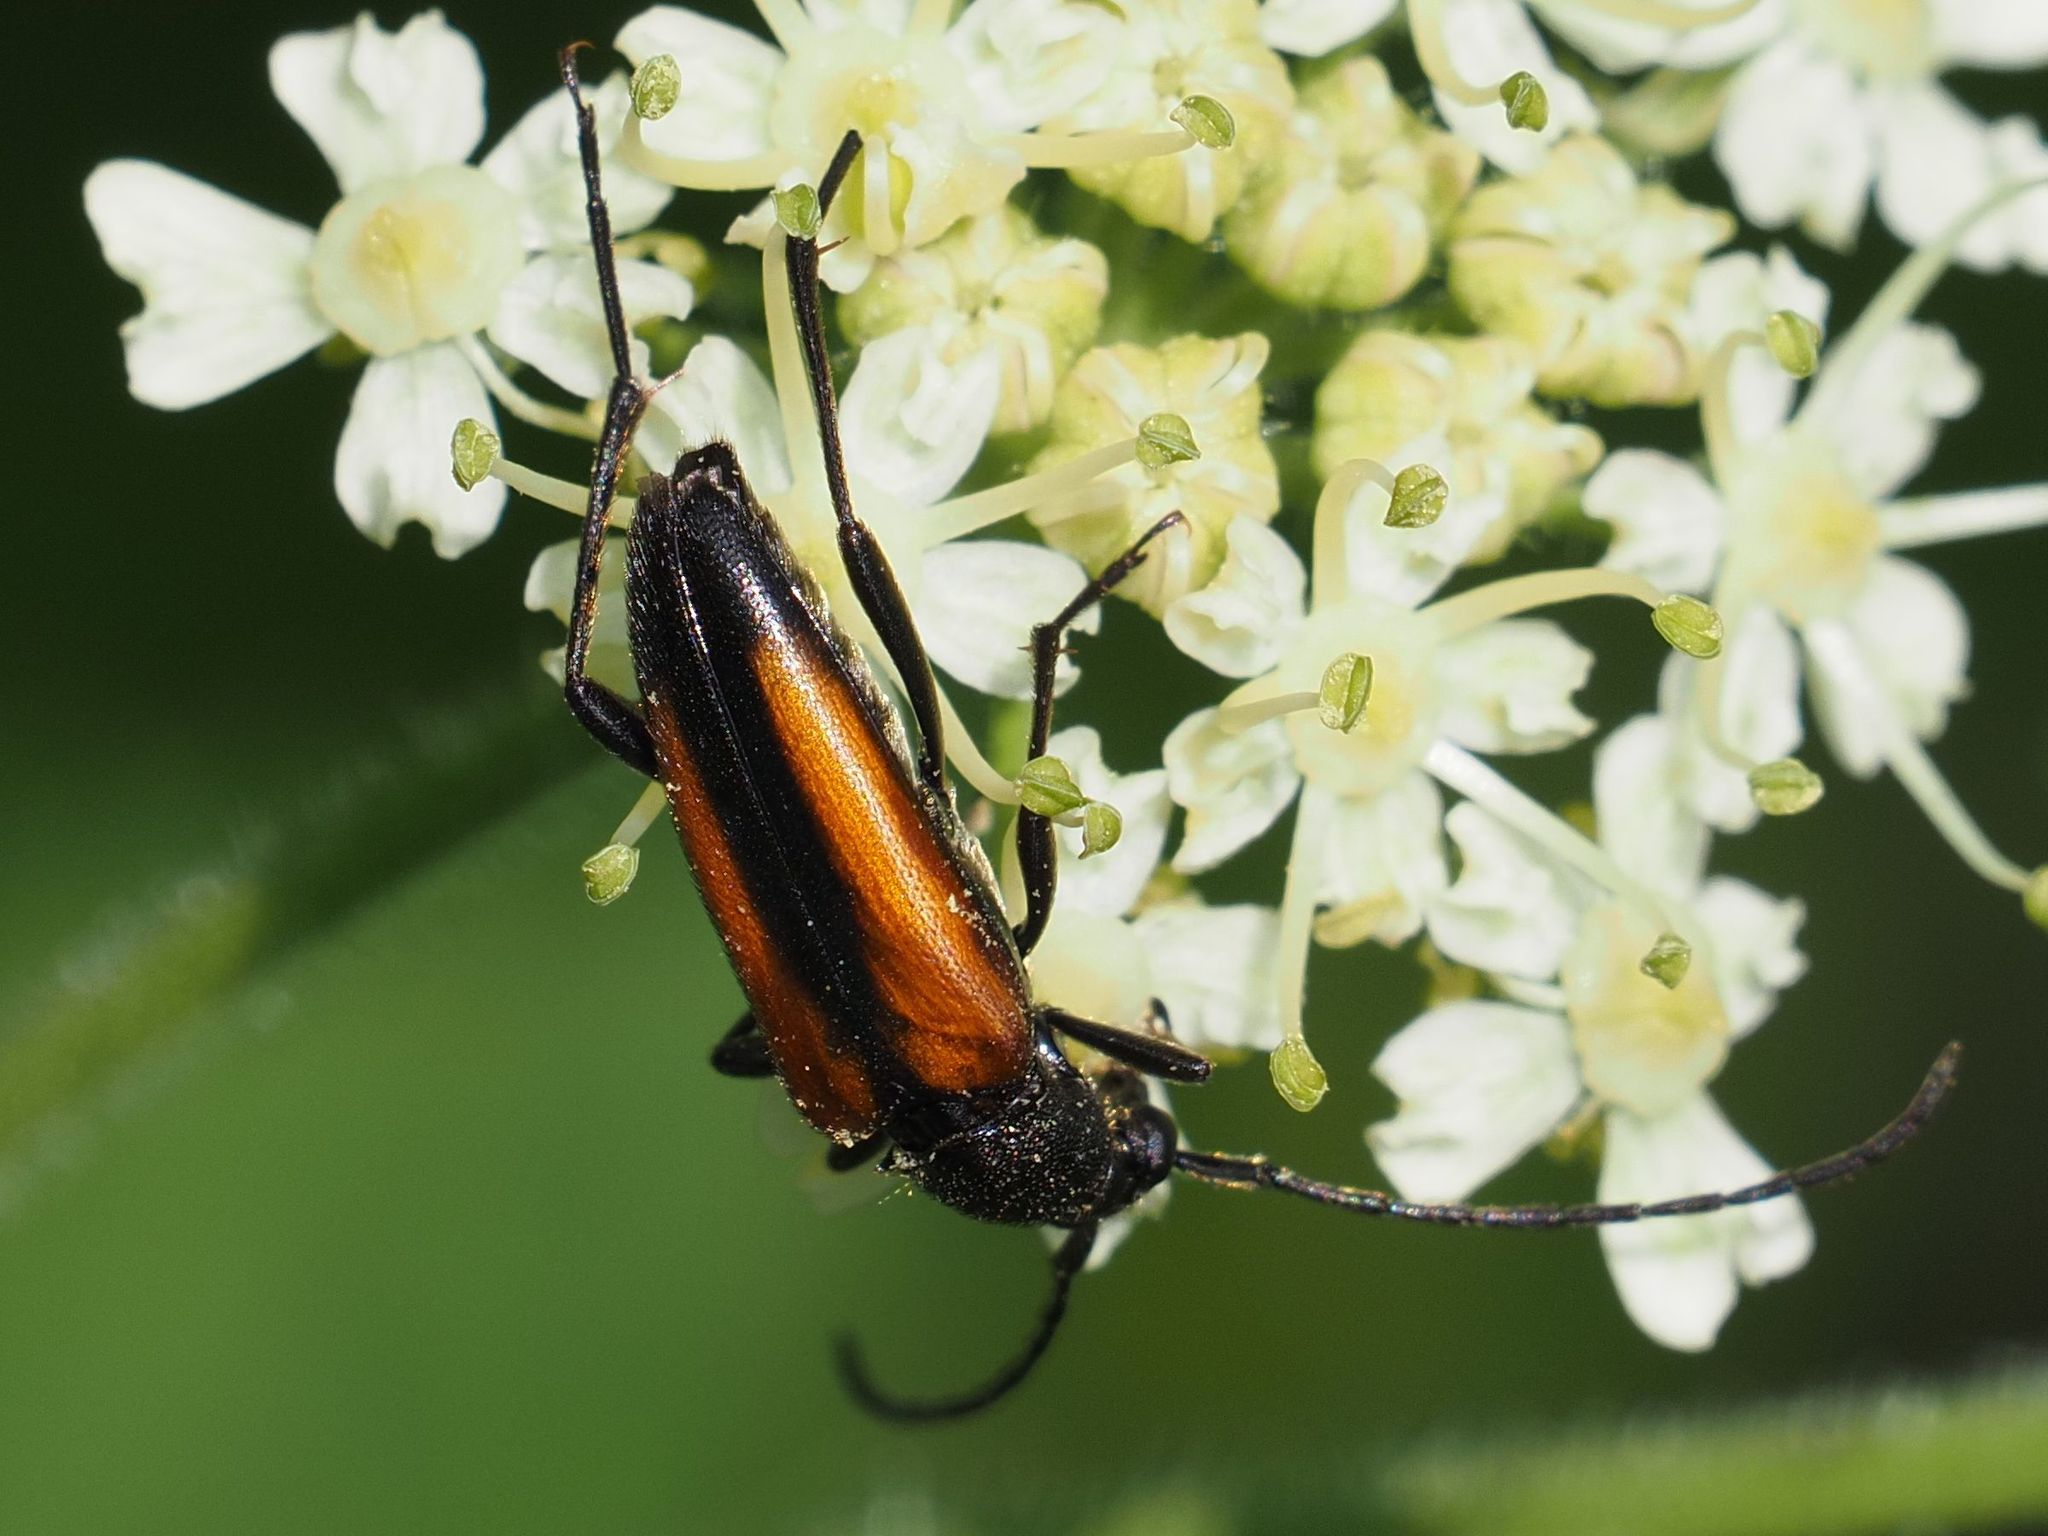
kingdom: Animalia
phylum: Arthropoda
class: Insecta
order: Coleoptera
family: Cerambycidae
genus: Stenurella
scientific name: Stenurella melanura
